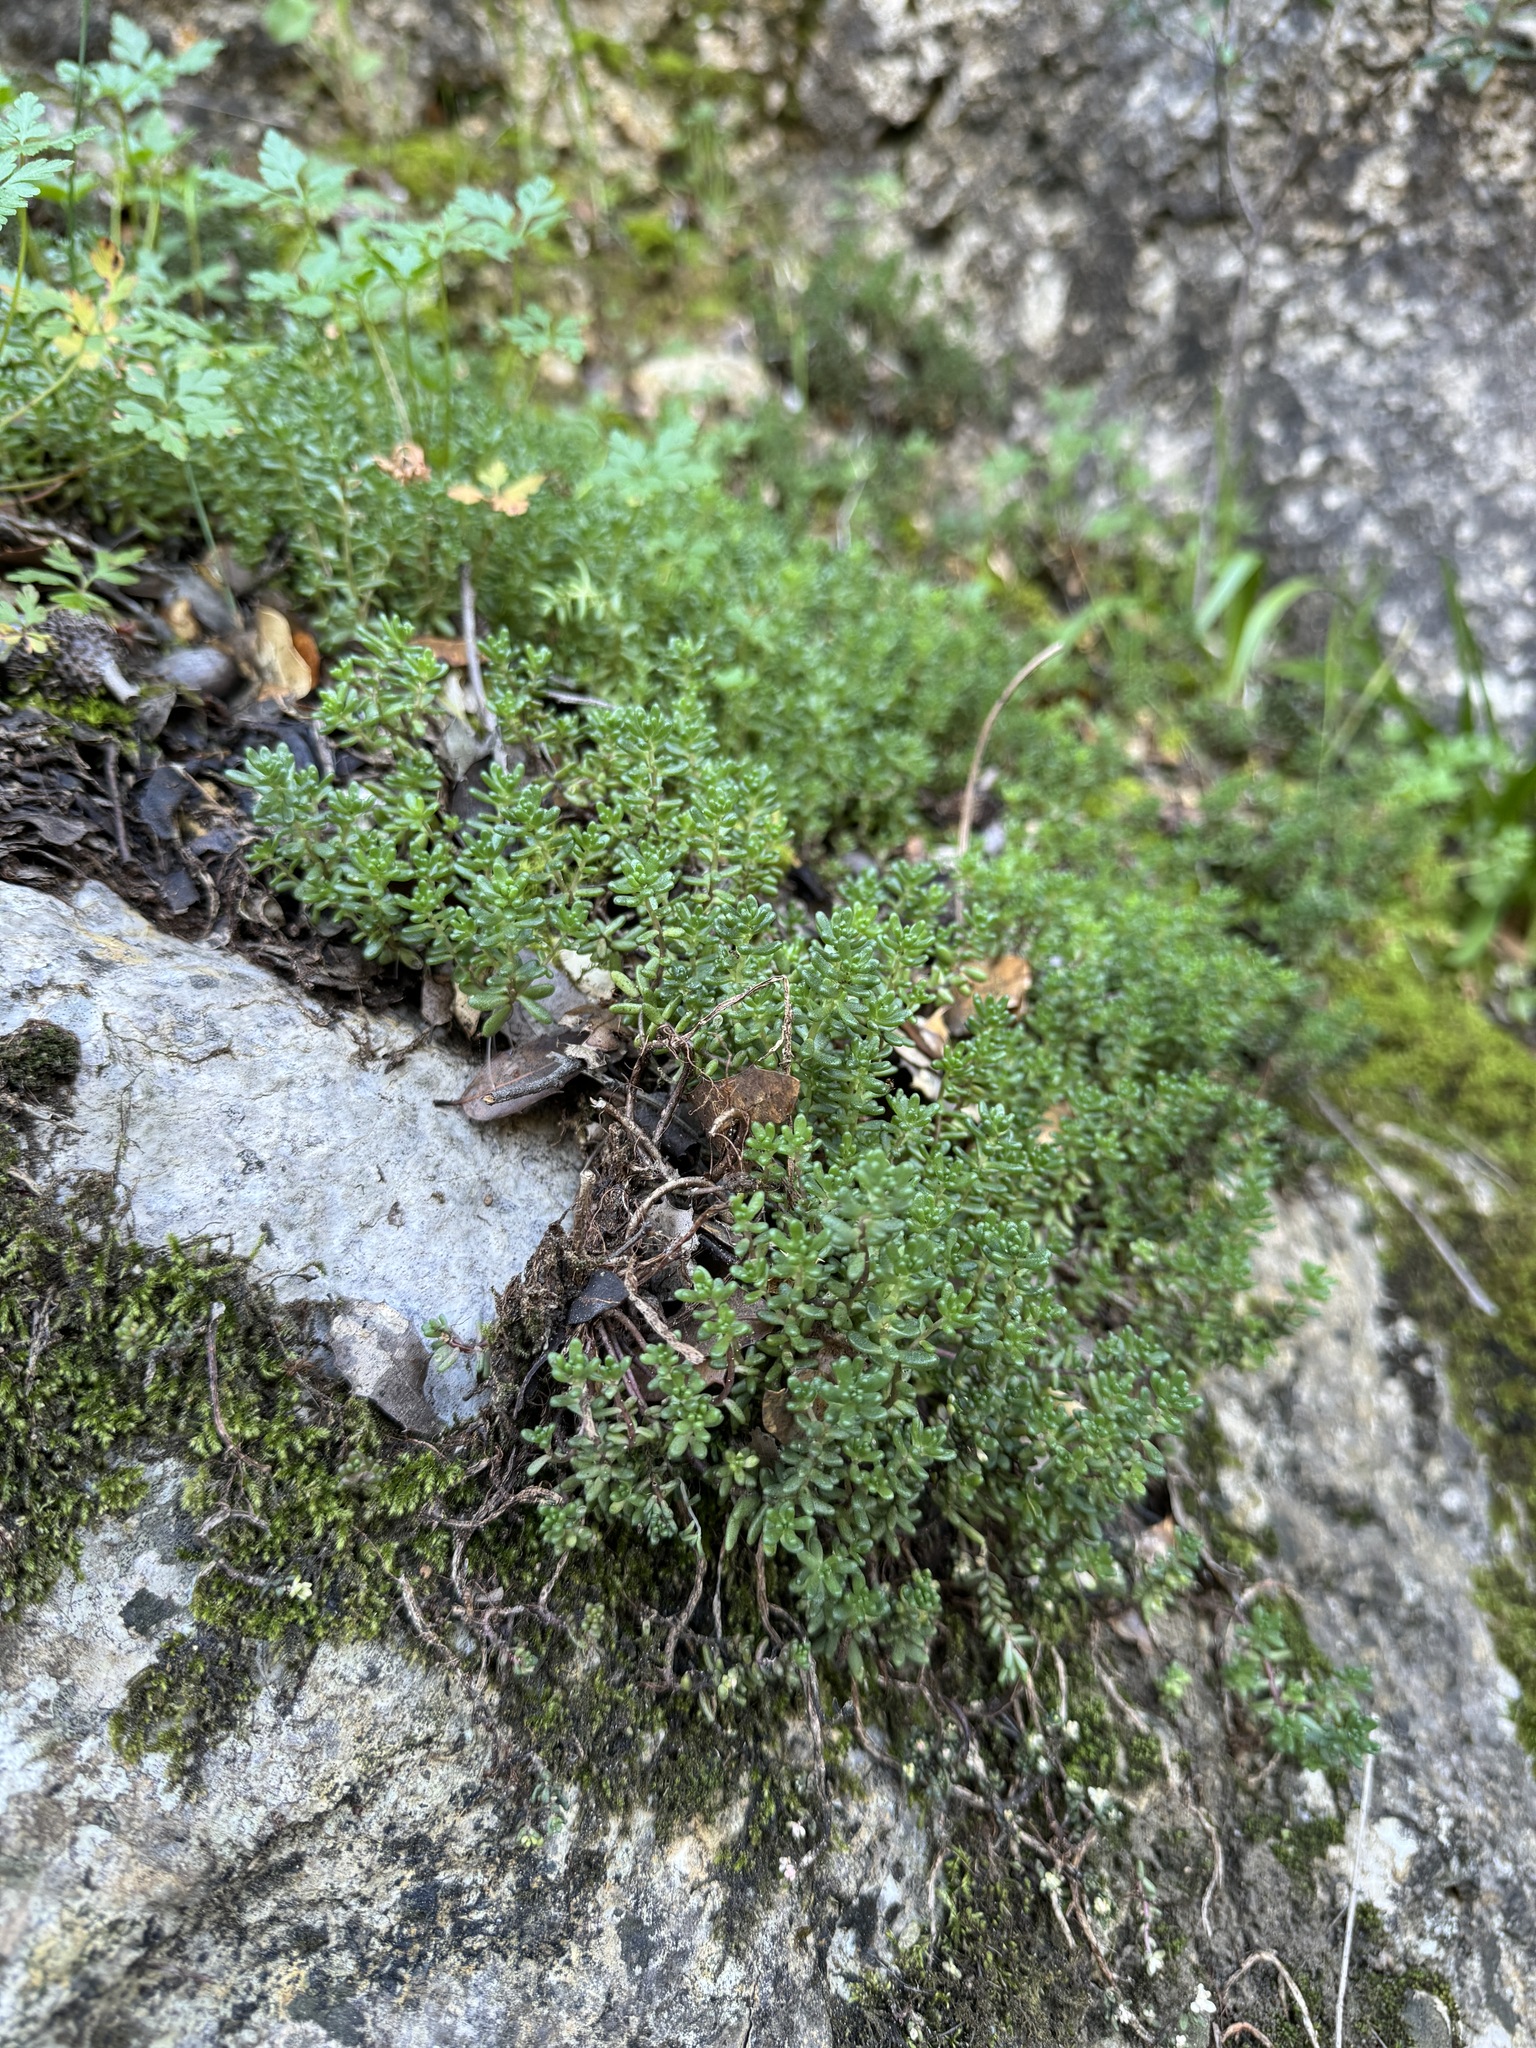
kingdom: Plantae
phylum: Tracheophyta
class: Magnoliopsida
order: Saxifragales
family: Crassulaceae
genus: Sedum
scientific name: Sedum album
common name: White stonecrop
